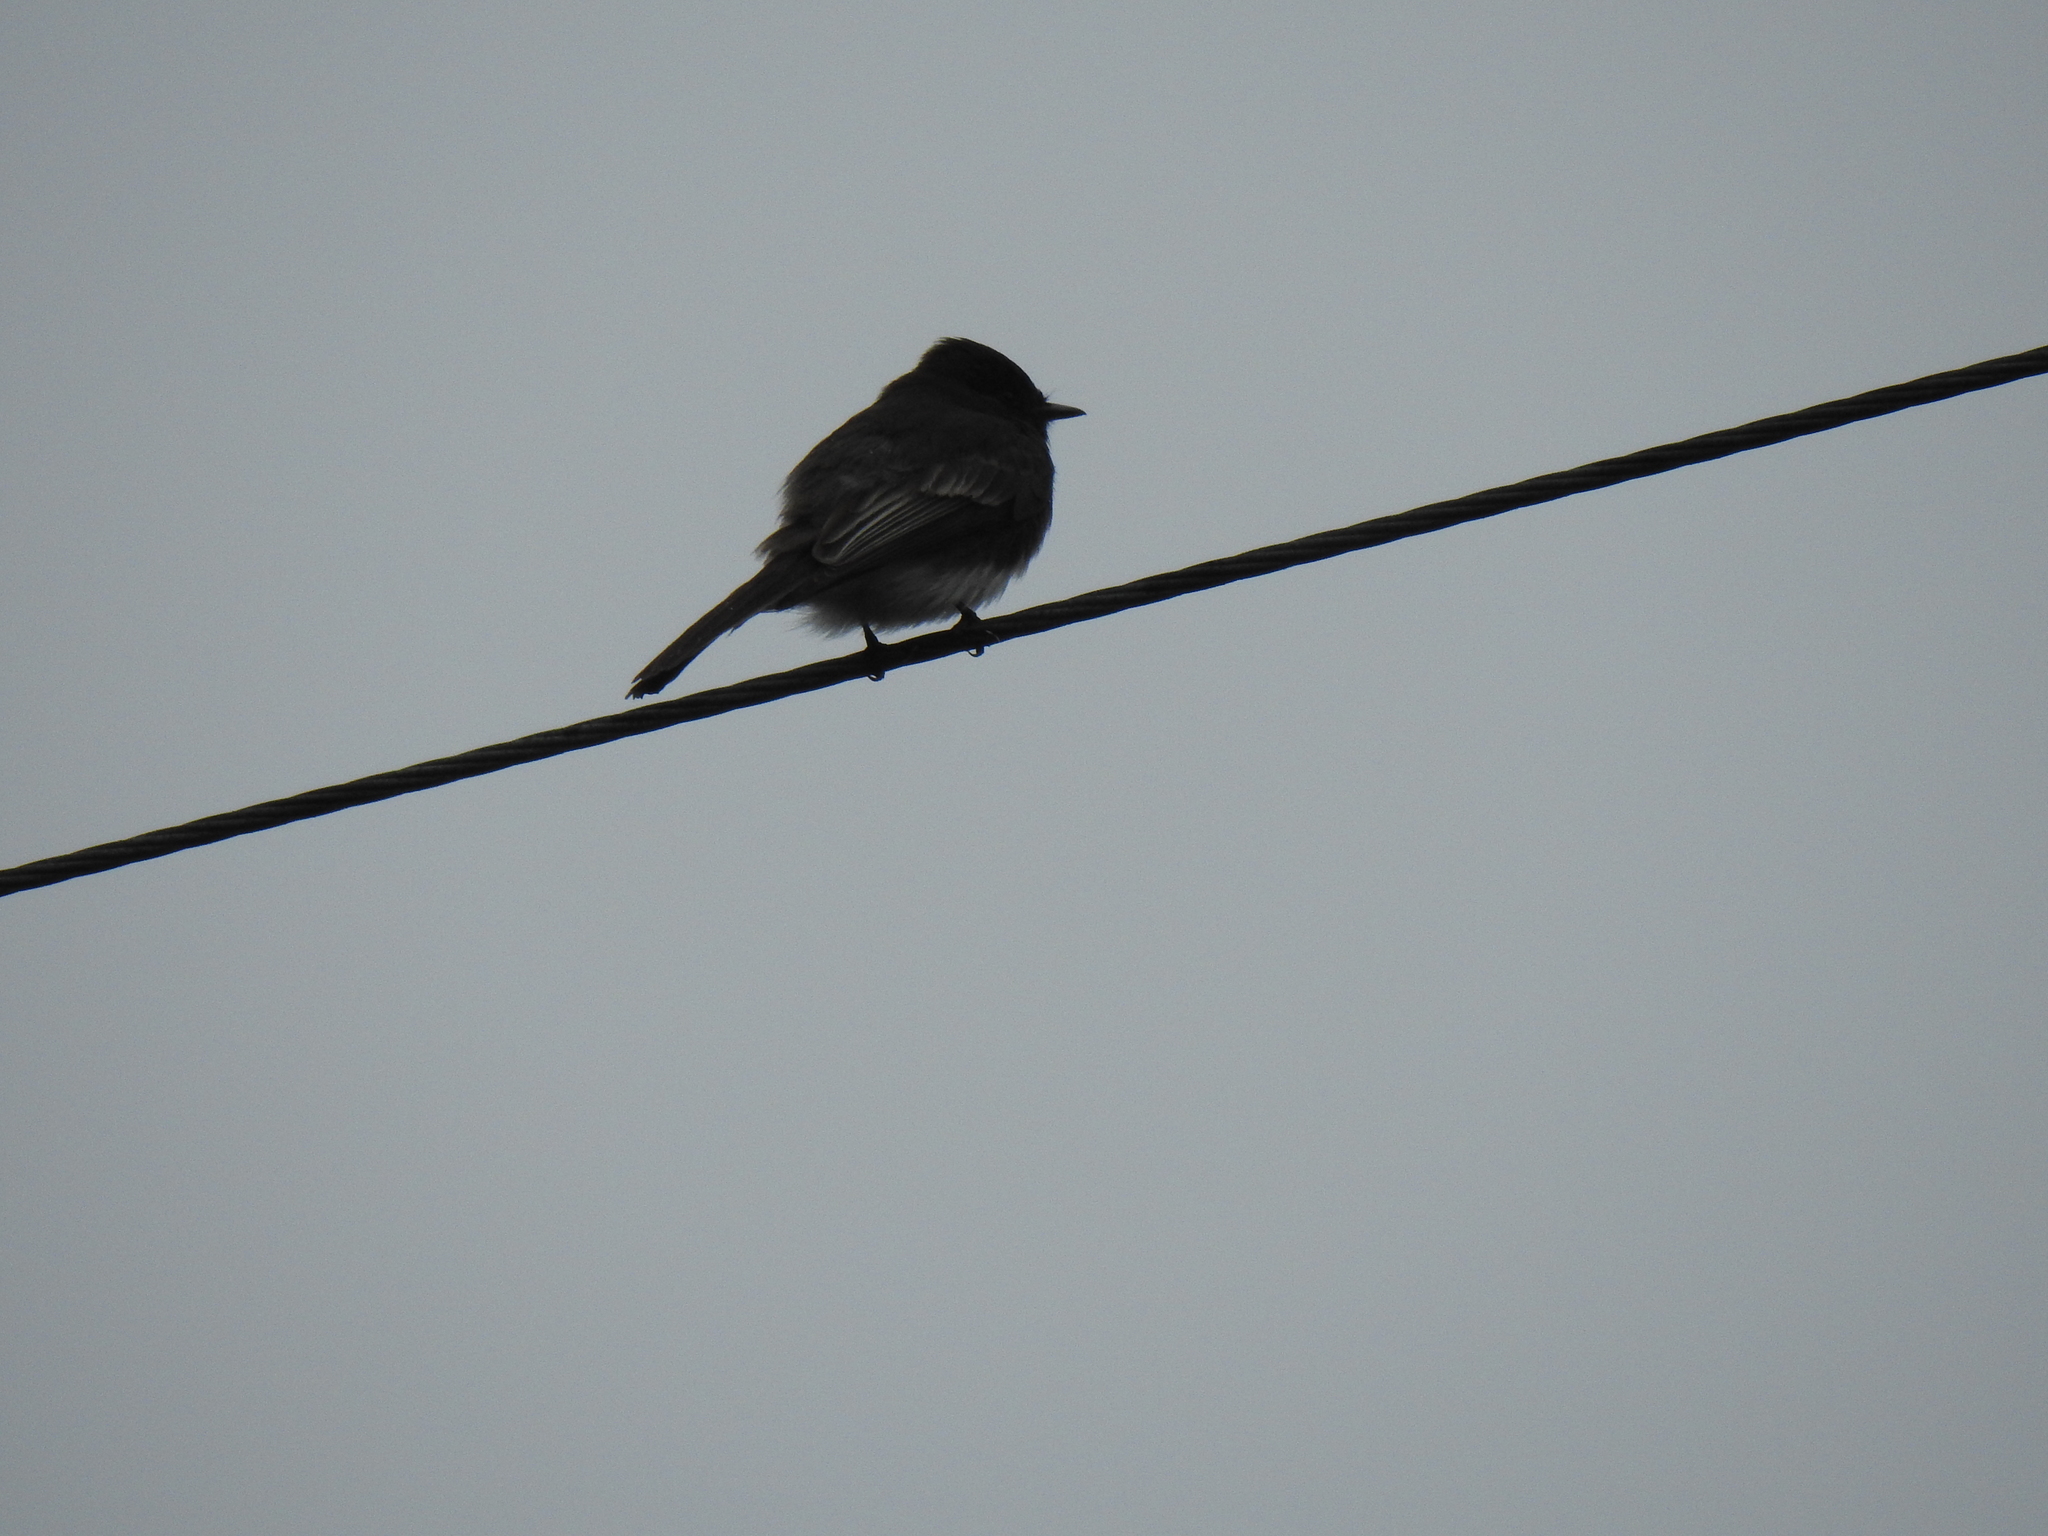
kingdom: Animalia
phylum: Chordata
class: Aves
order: Passeriformes
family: Tyrannidae
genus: Sayornis
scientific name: Sayornis nigricans
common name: Black phoebe
